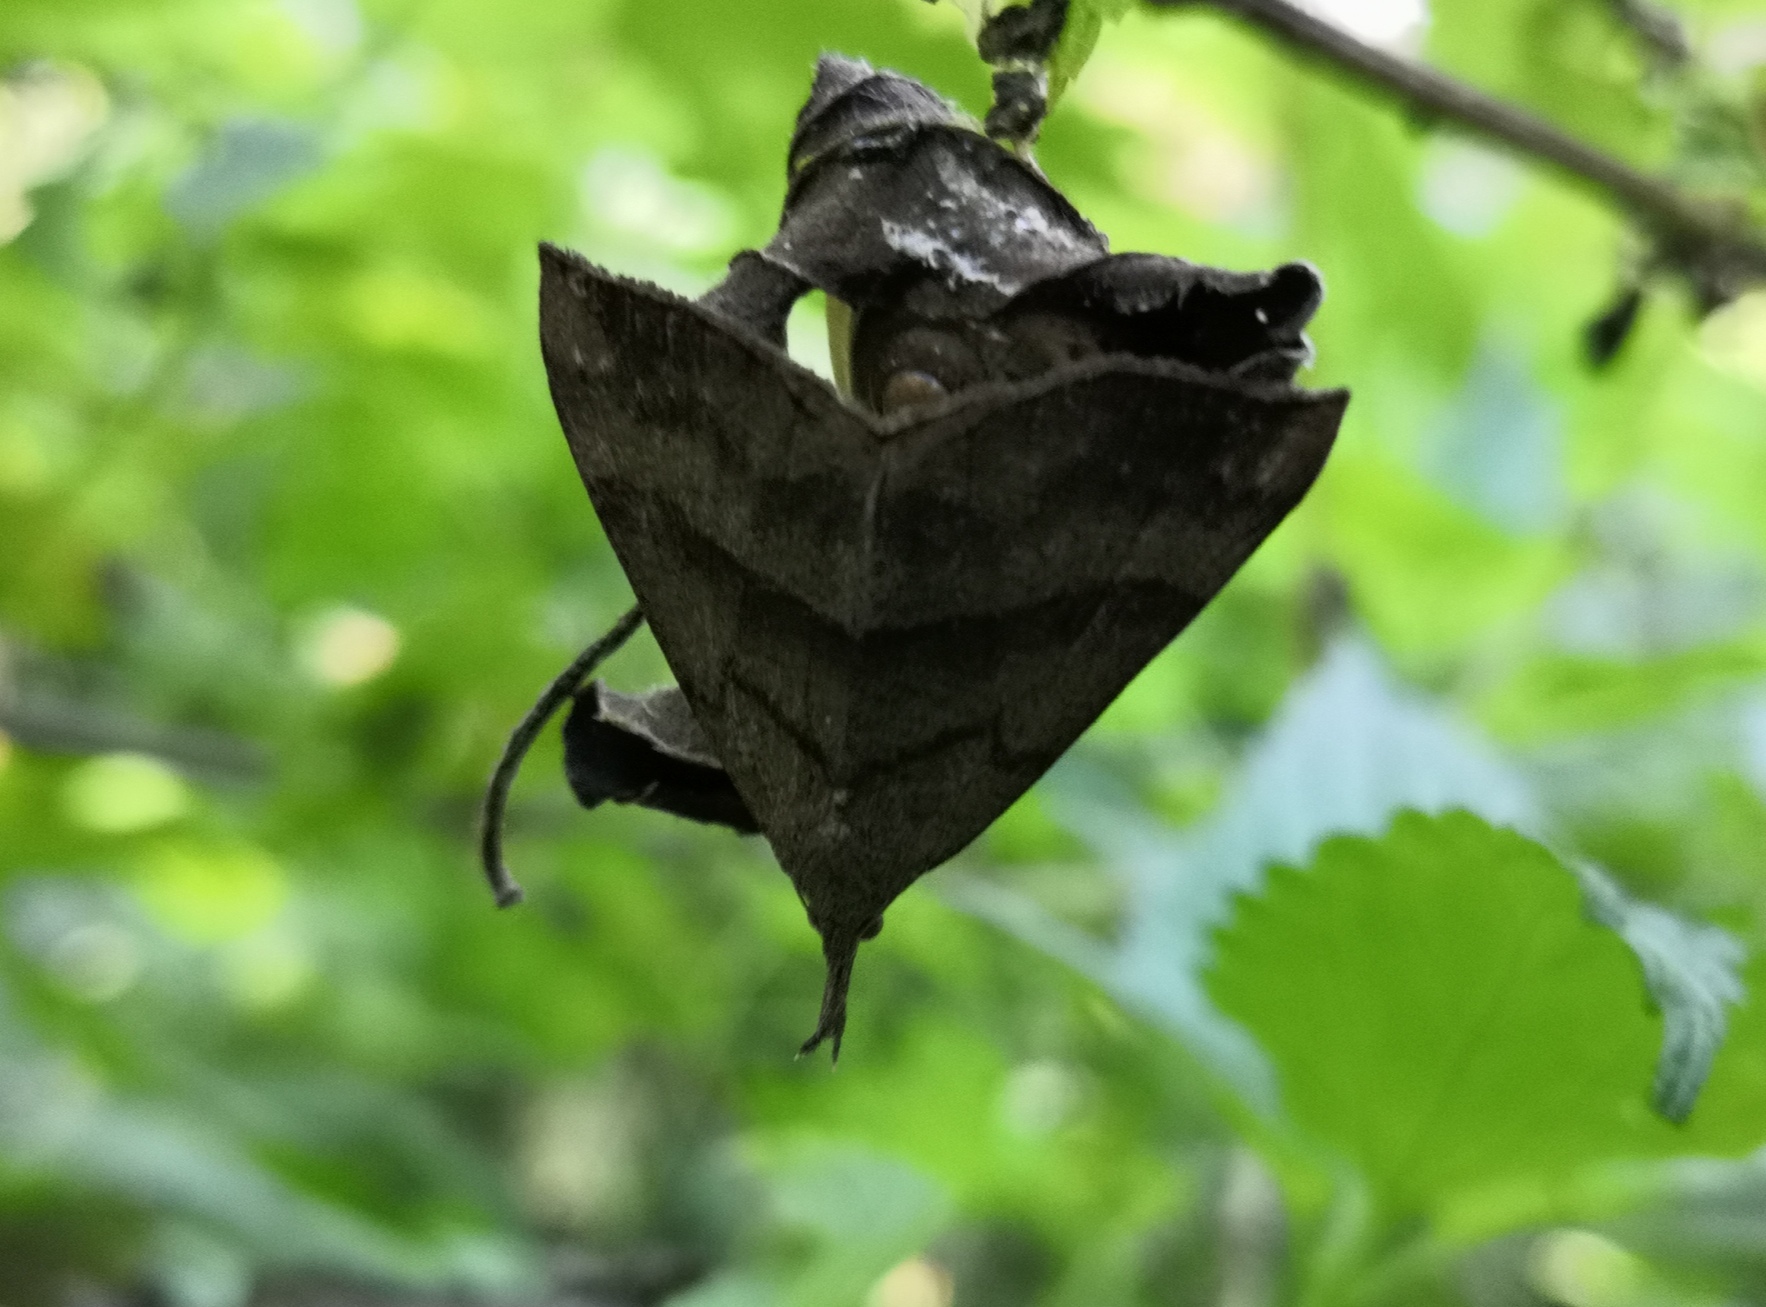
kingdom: Animalia
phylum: Arthropoda
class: Insecta
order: Lepidoptera
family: Erebidae
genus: Hypena
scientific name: Hypena proboscidalis
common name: Snout
